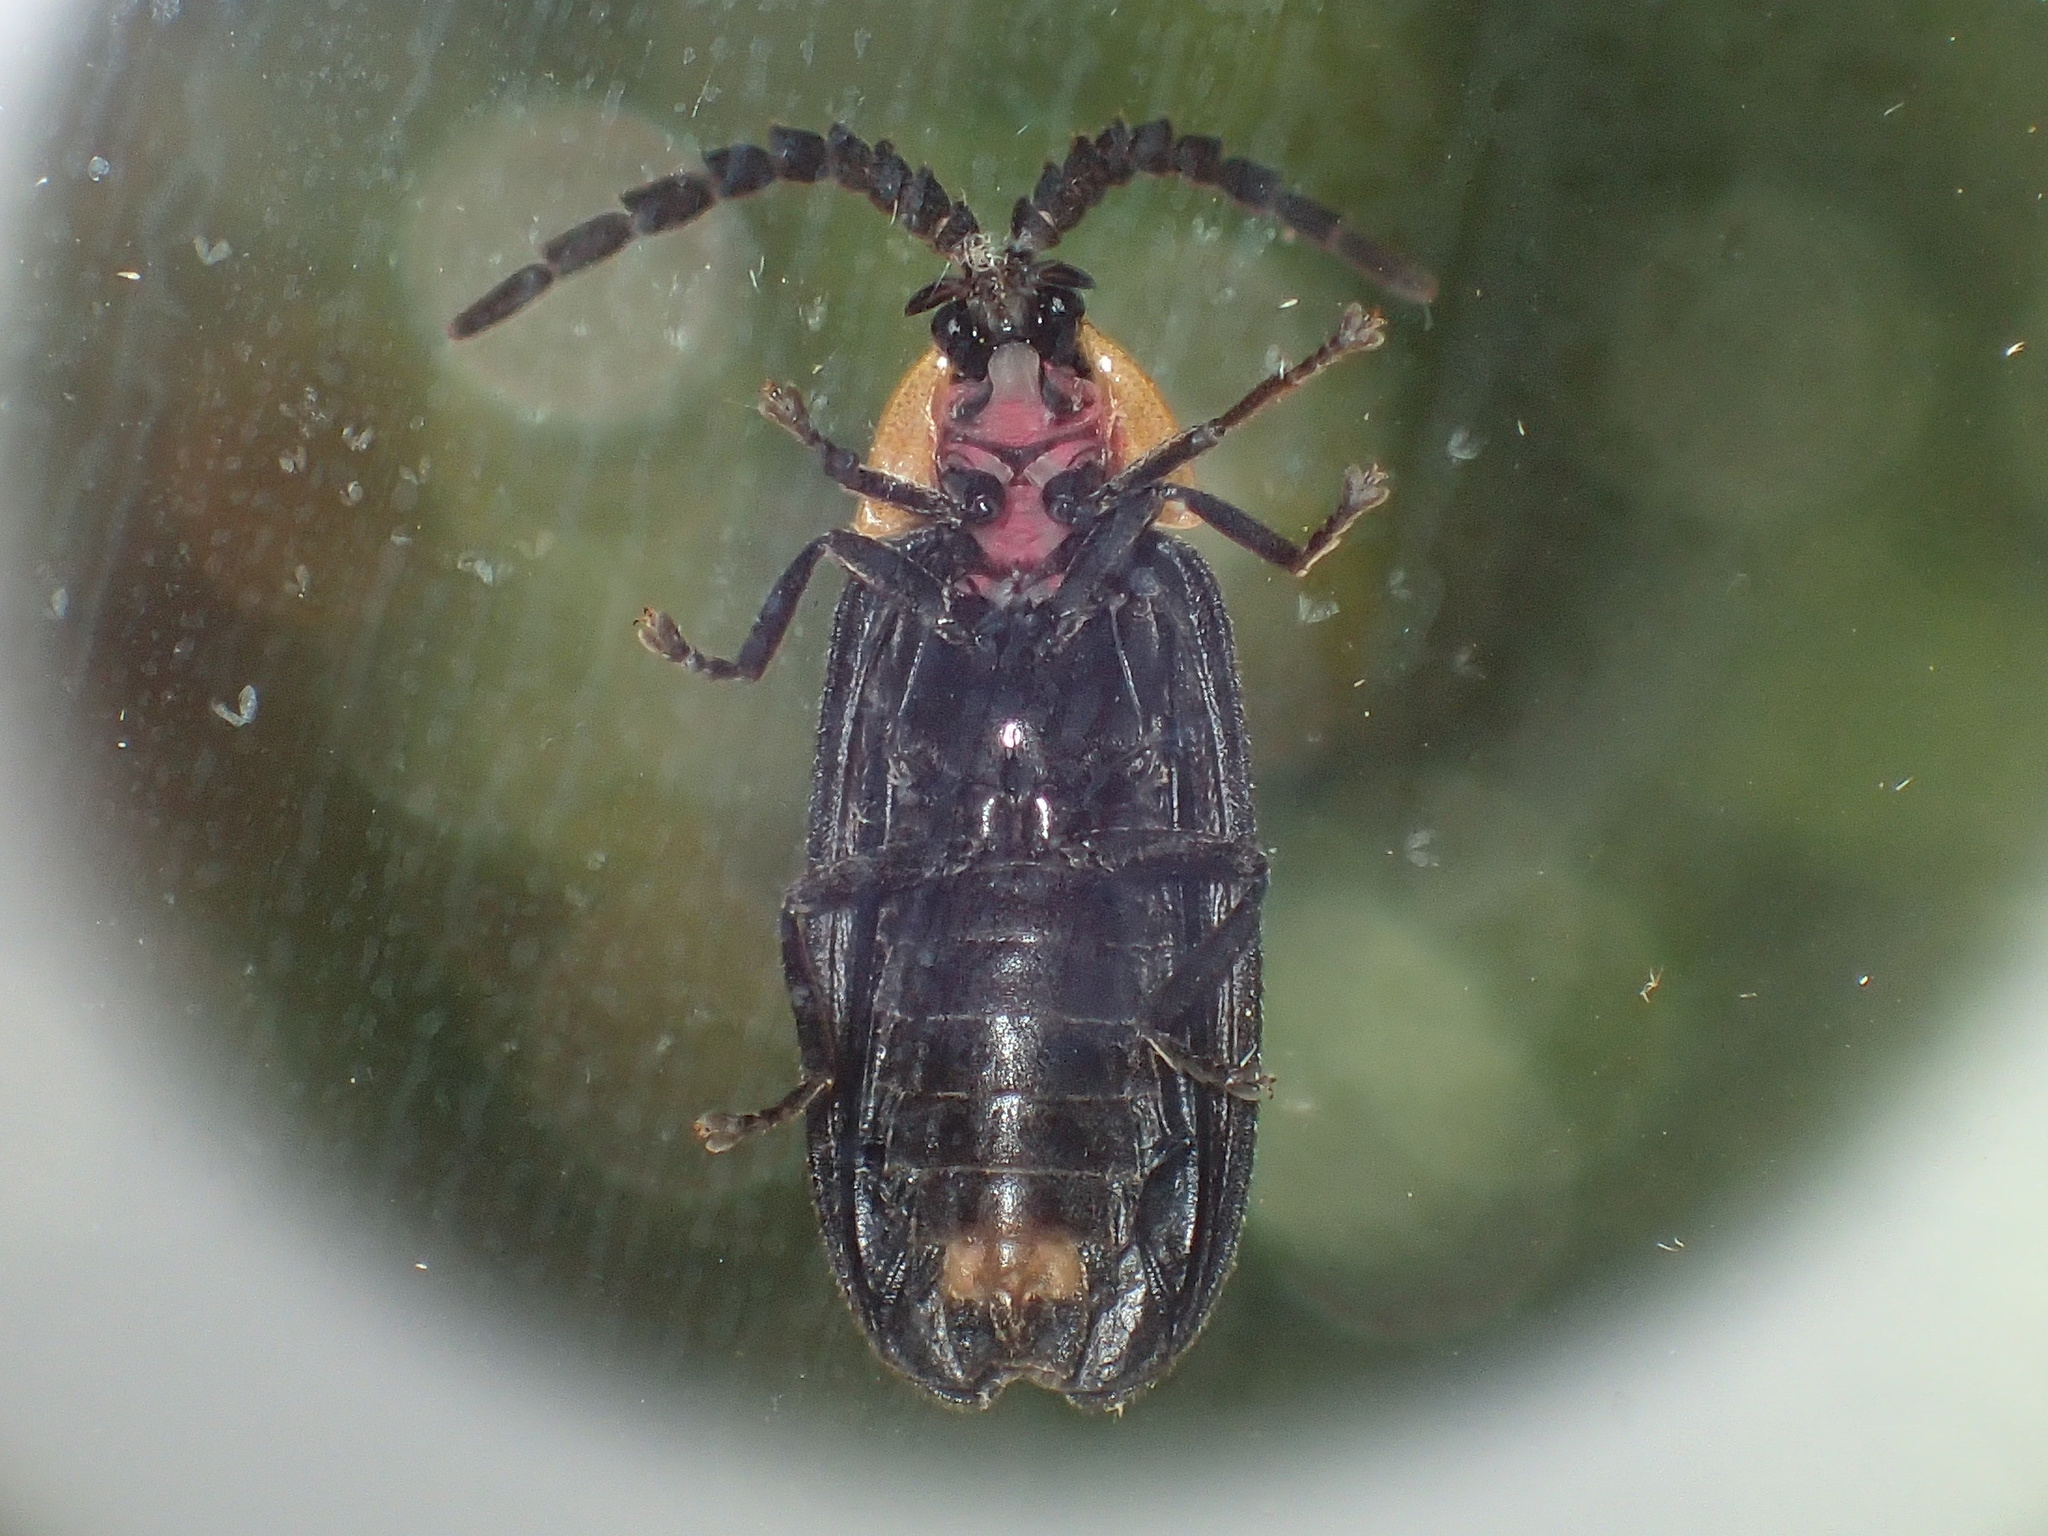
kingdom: Animalia
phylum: Arthropoda
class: Insecta
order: Coleoptera
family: Lampyridae
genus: Lucidota
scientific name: Lucidota atra
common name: Black firefly
